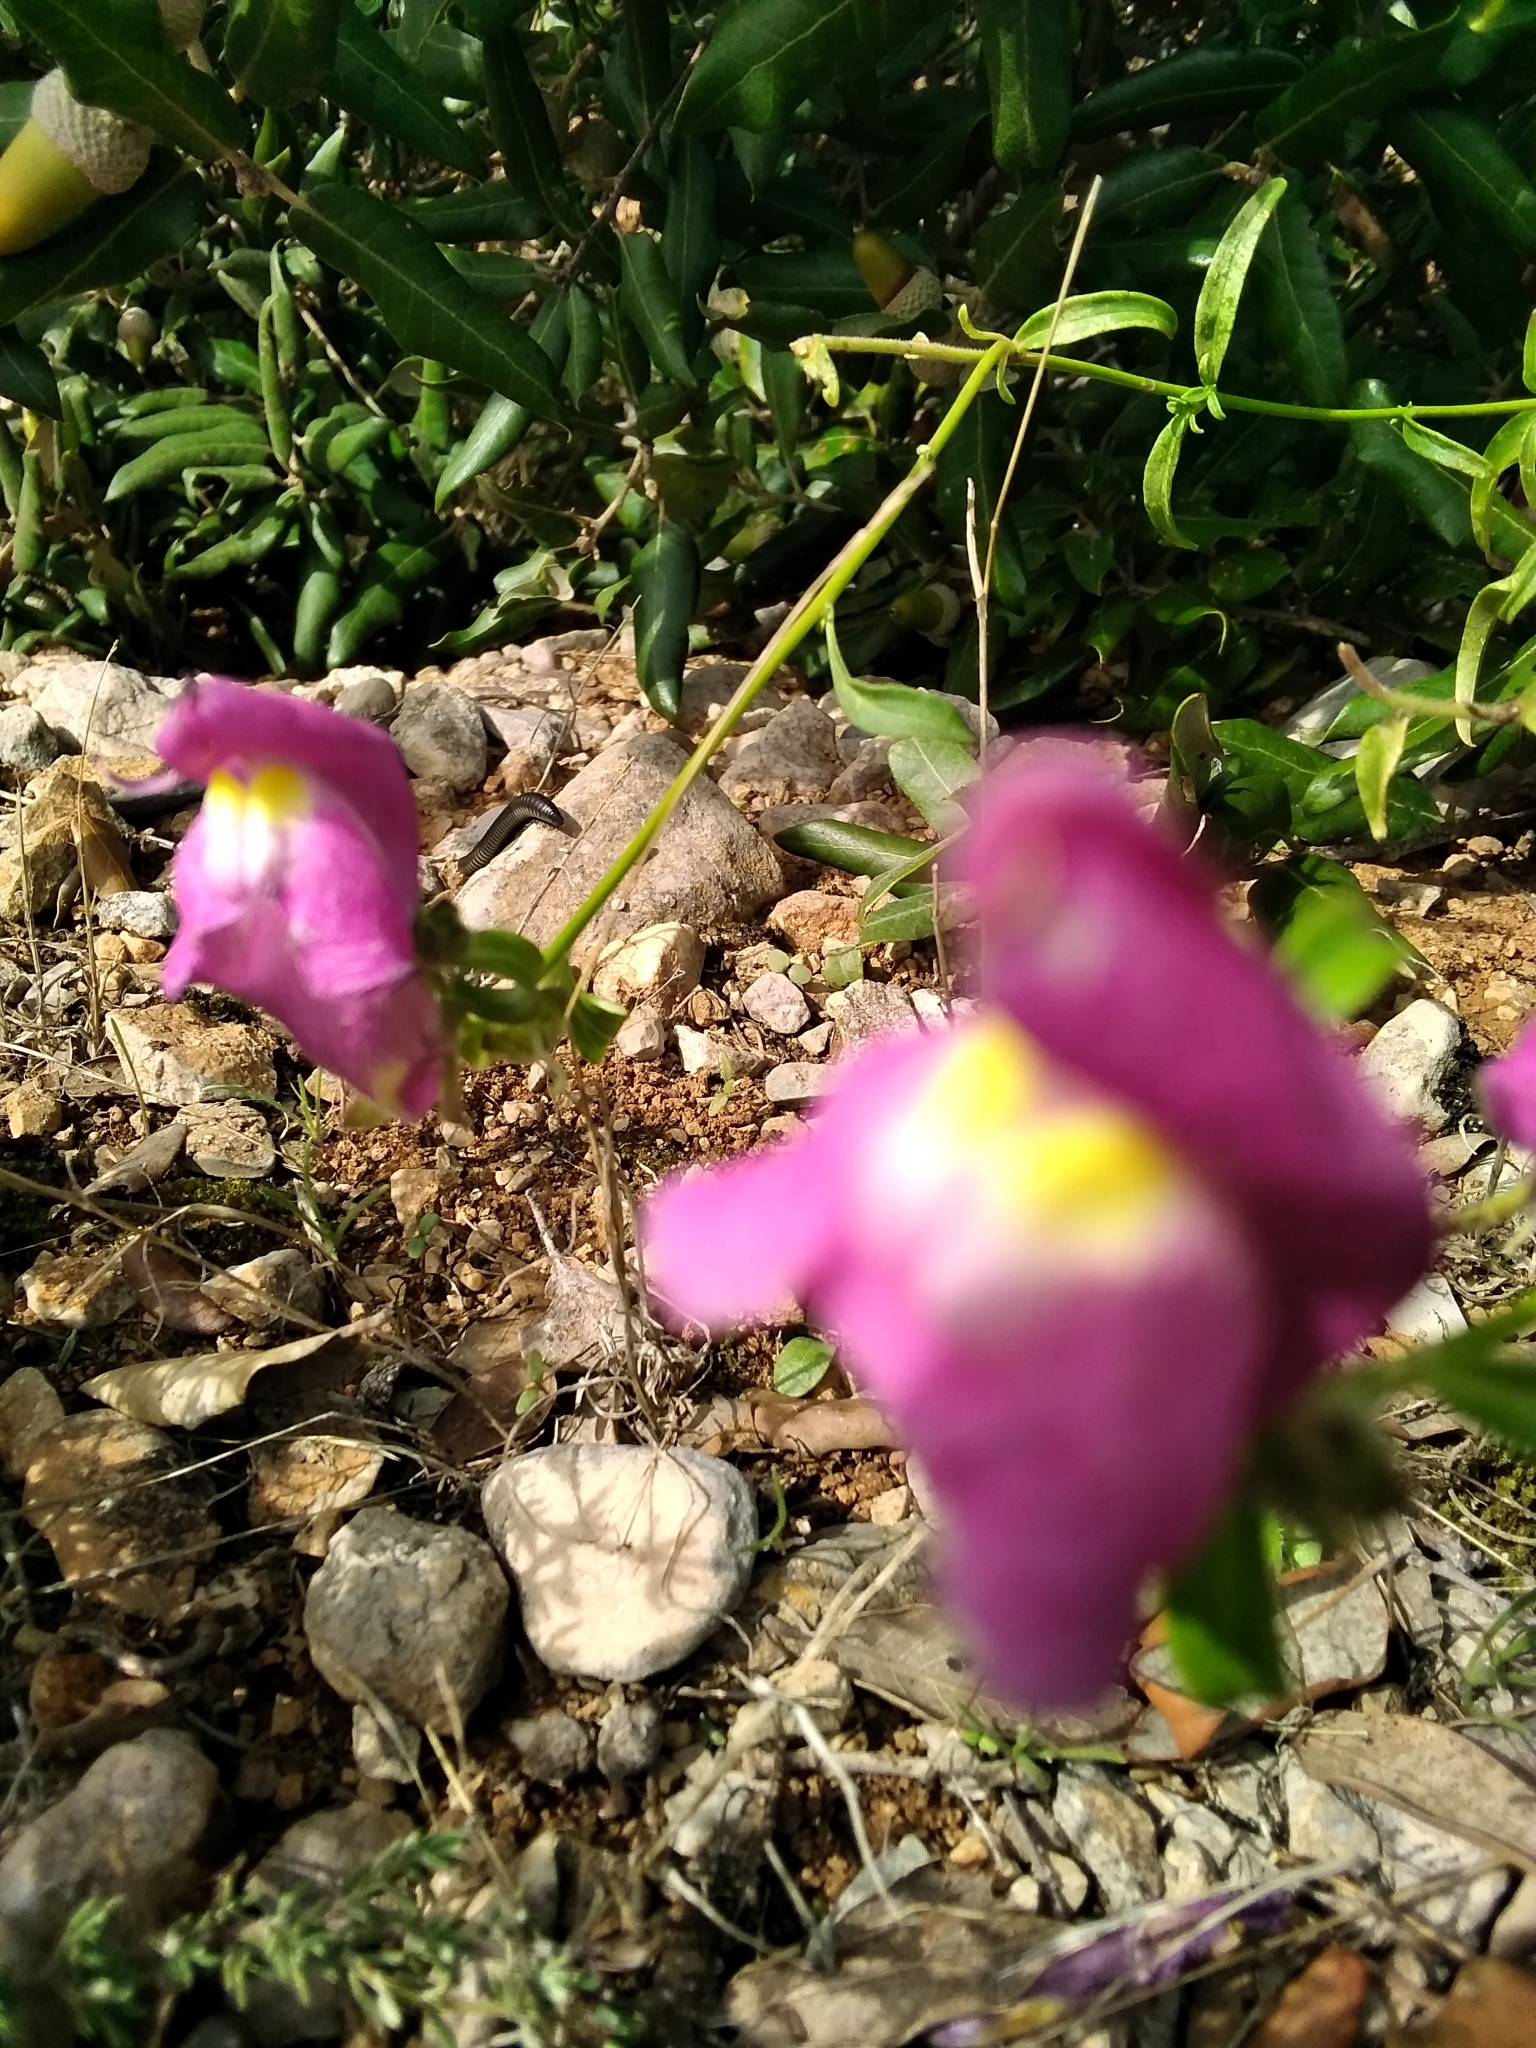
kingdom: Plantae
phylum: Tracheophyta
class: Magnoliopsida
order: Lamiales
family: Plantaginaceae
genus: Antirrhinum
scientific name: Antirrhinum majus
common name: Snapdragon
